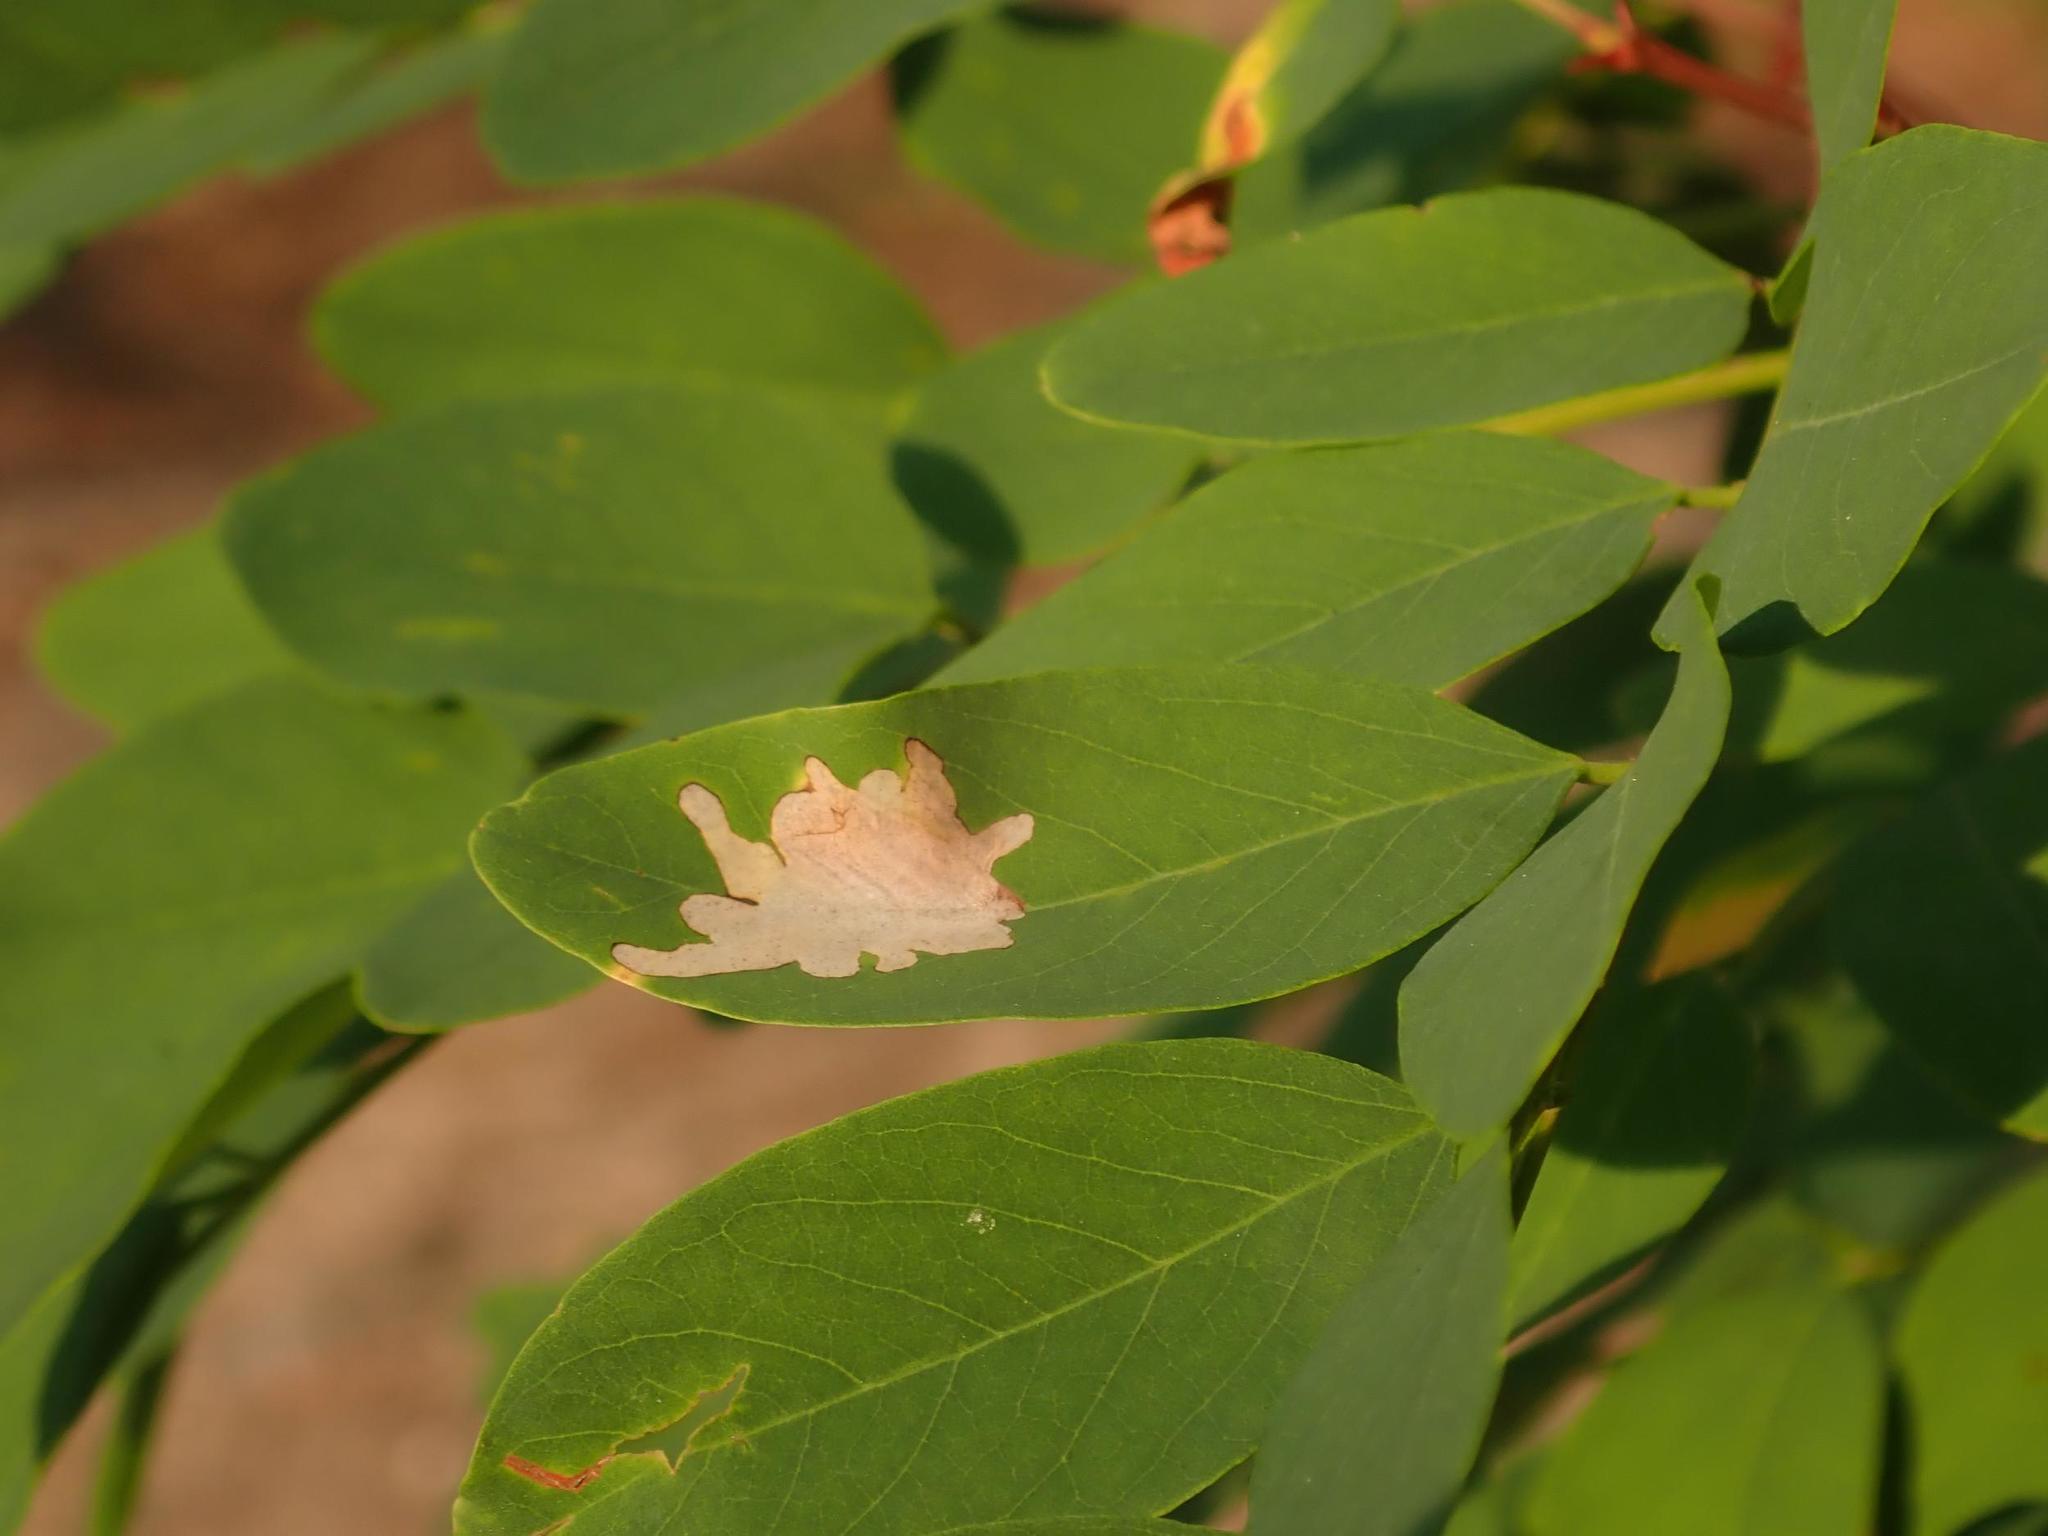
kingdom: Plantae
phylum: Tracheophyta
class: Magnoliopsida
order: Fabales
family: Fabaceae
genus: Robinia
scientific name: Robinia pseudoacacia
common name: Black locust
